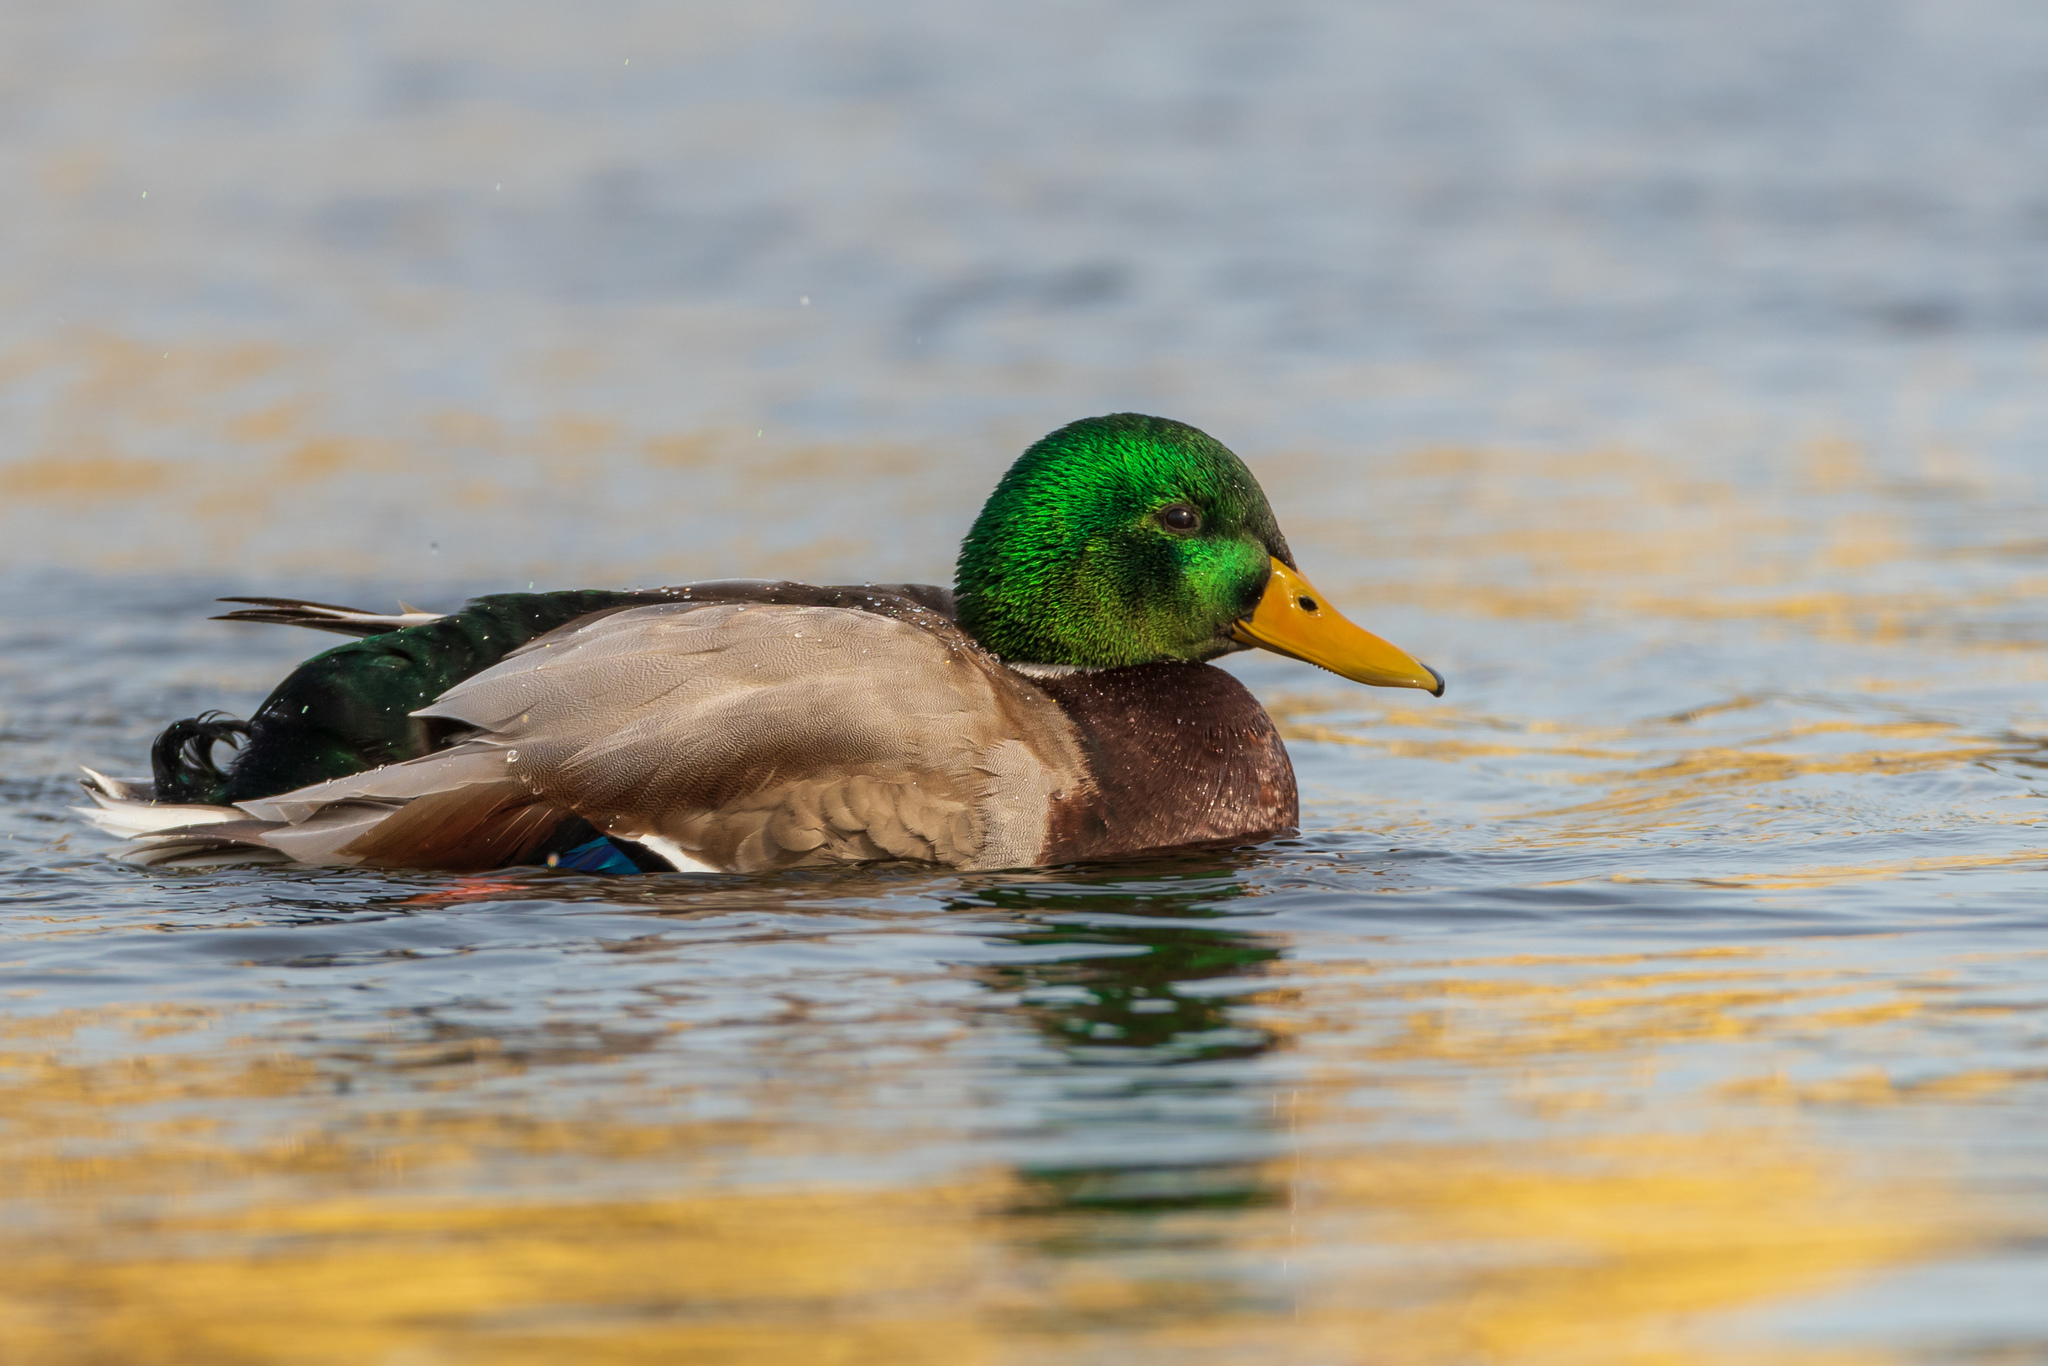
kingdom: Animalia
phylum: Chordata
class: Aves
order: Anseriformes
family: Anatidae
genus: Anas
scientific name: Anas platyrhynchos
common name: Mallard
